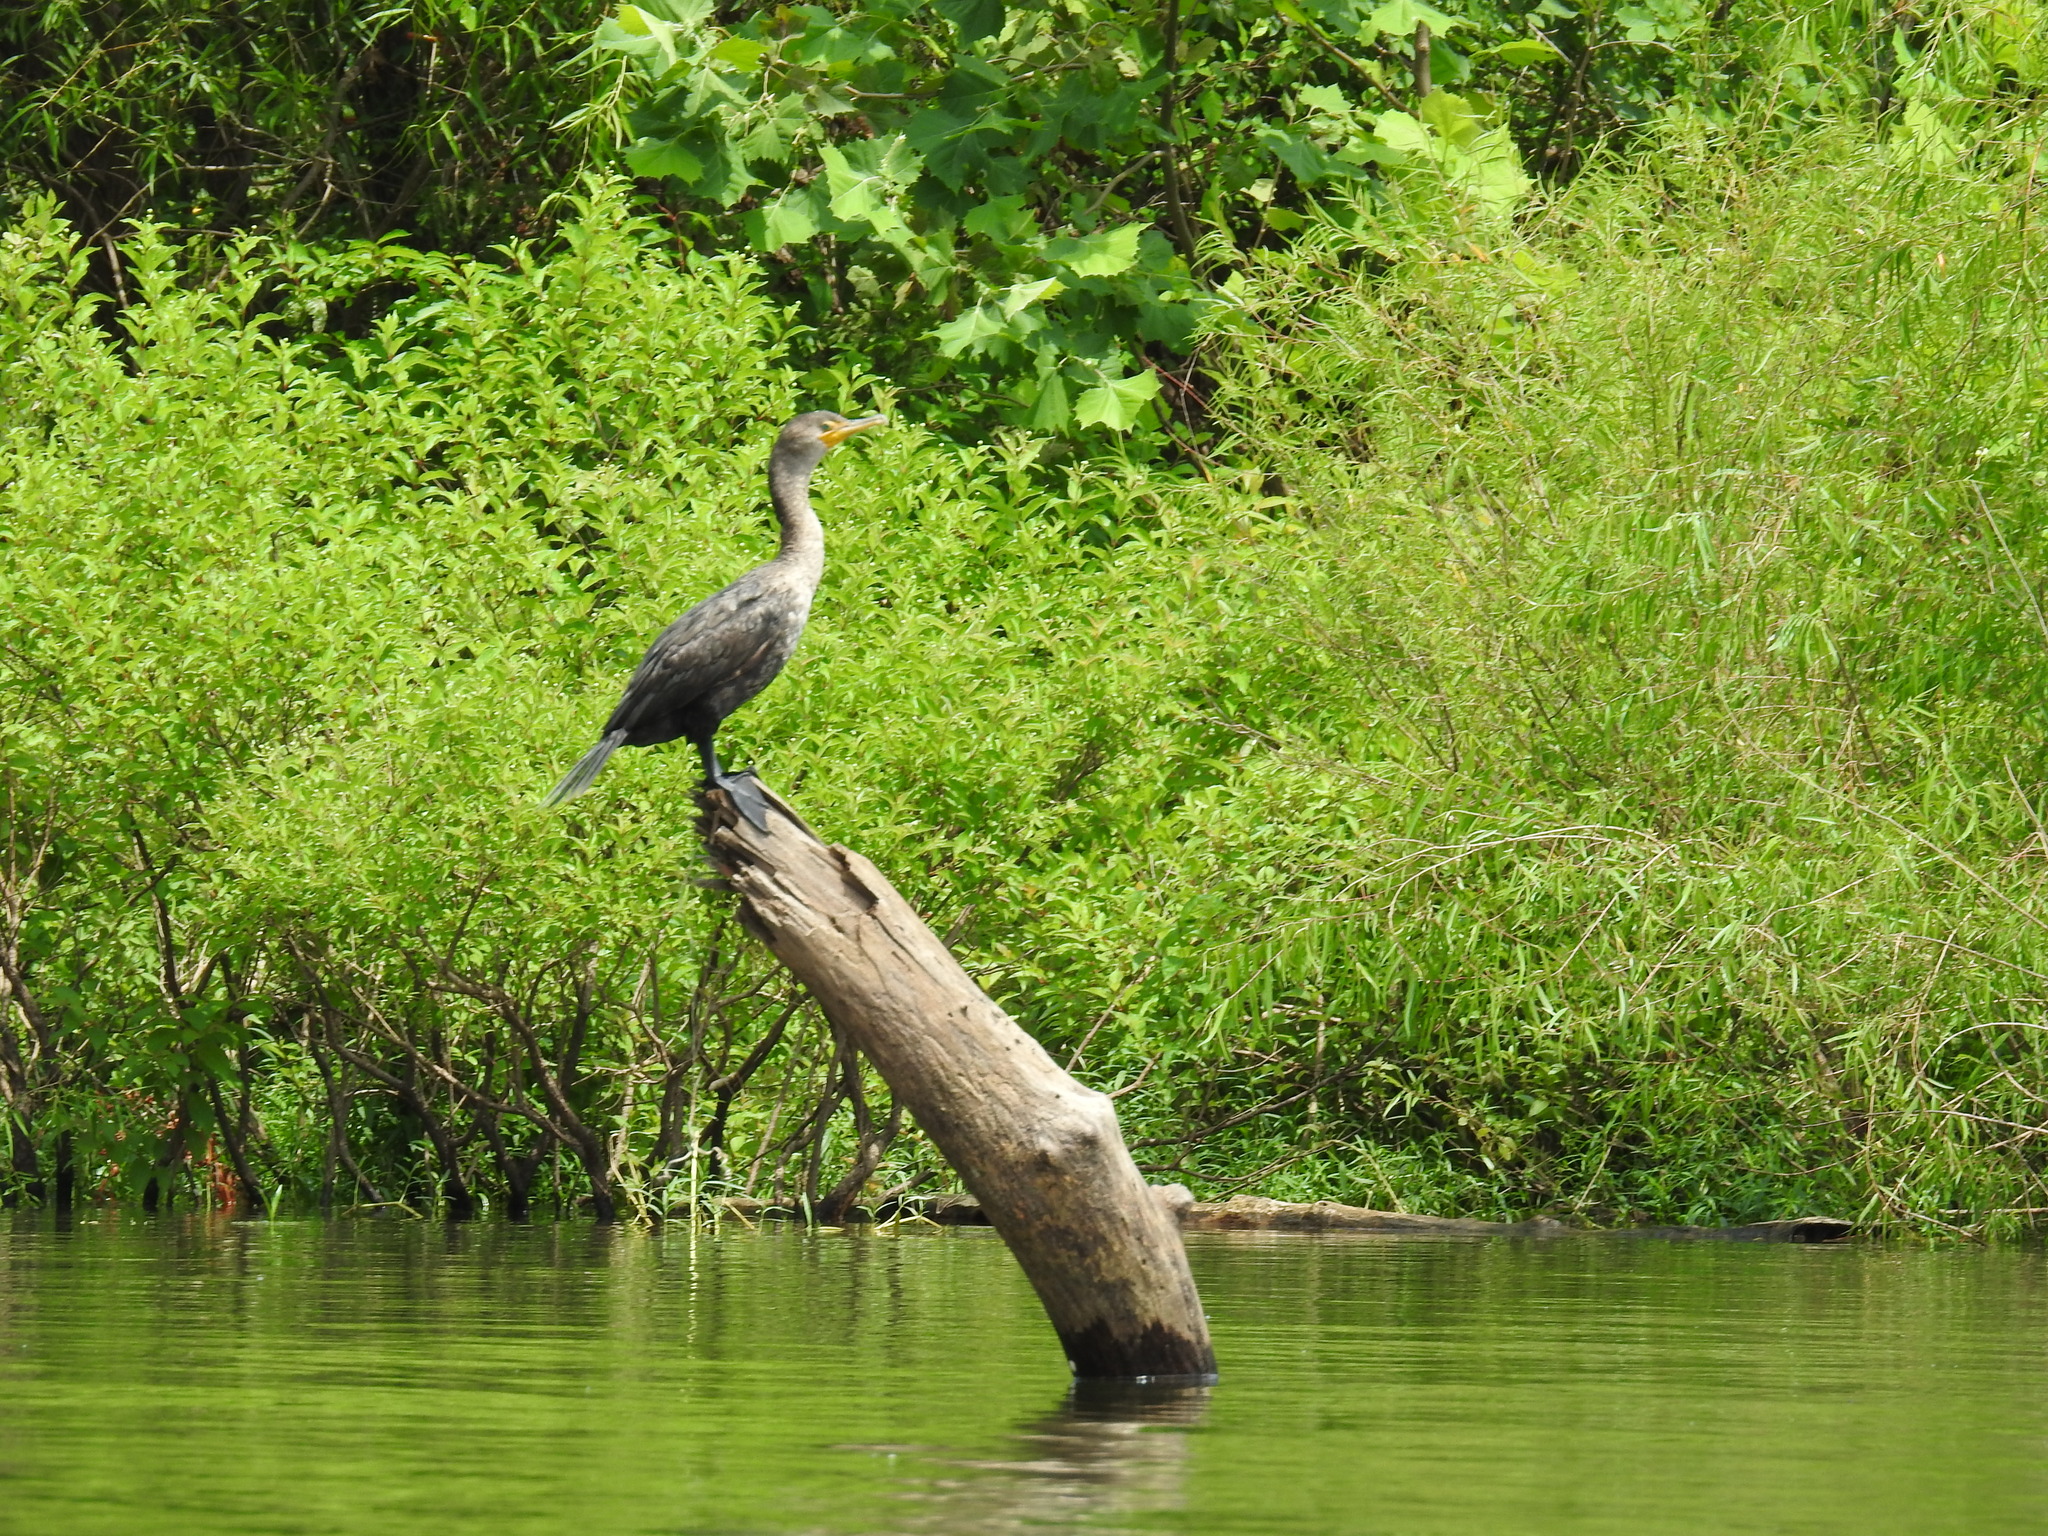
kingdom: Animalia
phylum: Chordata
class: Aves
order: Suliformes
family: Phalacrocoracidae
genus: Phalacrocorax
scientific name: Phalacrocorax auritus
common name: Double-crested cormorant
